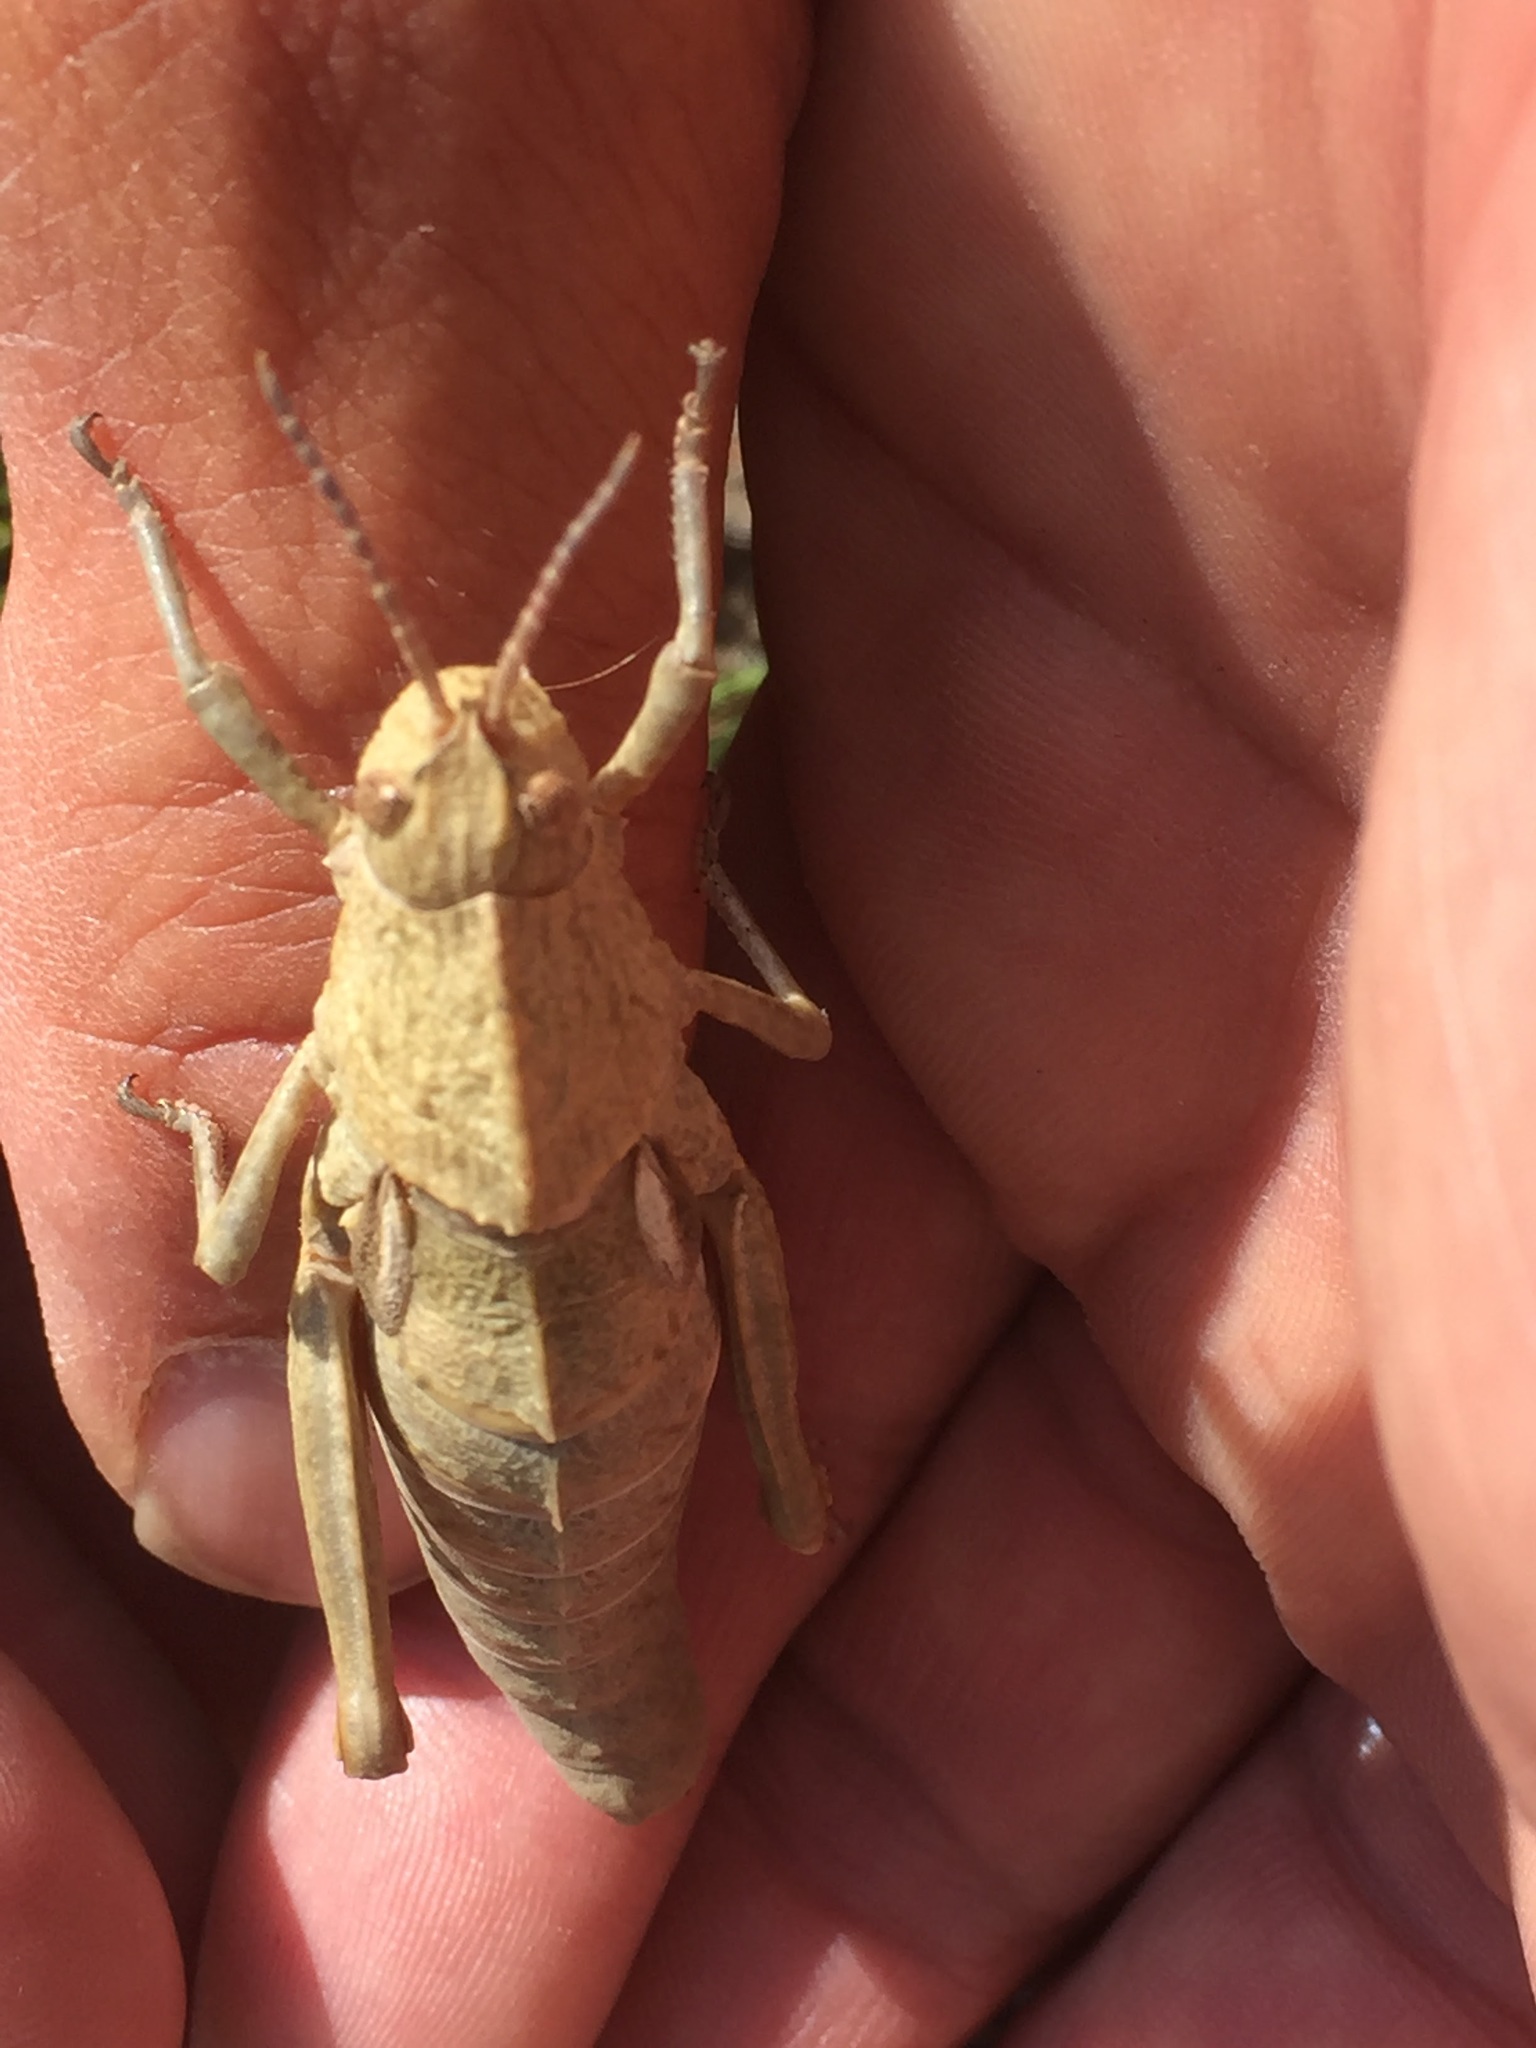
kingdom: Animalia
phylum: Arthropoda
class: Insecta
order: Orthoptera
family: Pamphagidae
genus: Eumigus
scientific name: Eumigus ayresi
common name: Ayres' stone grasshopper
